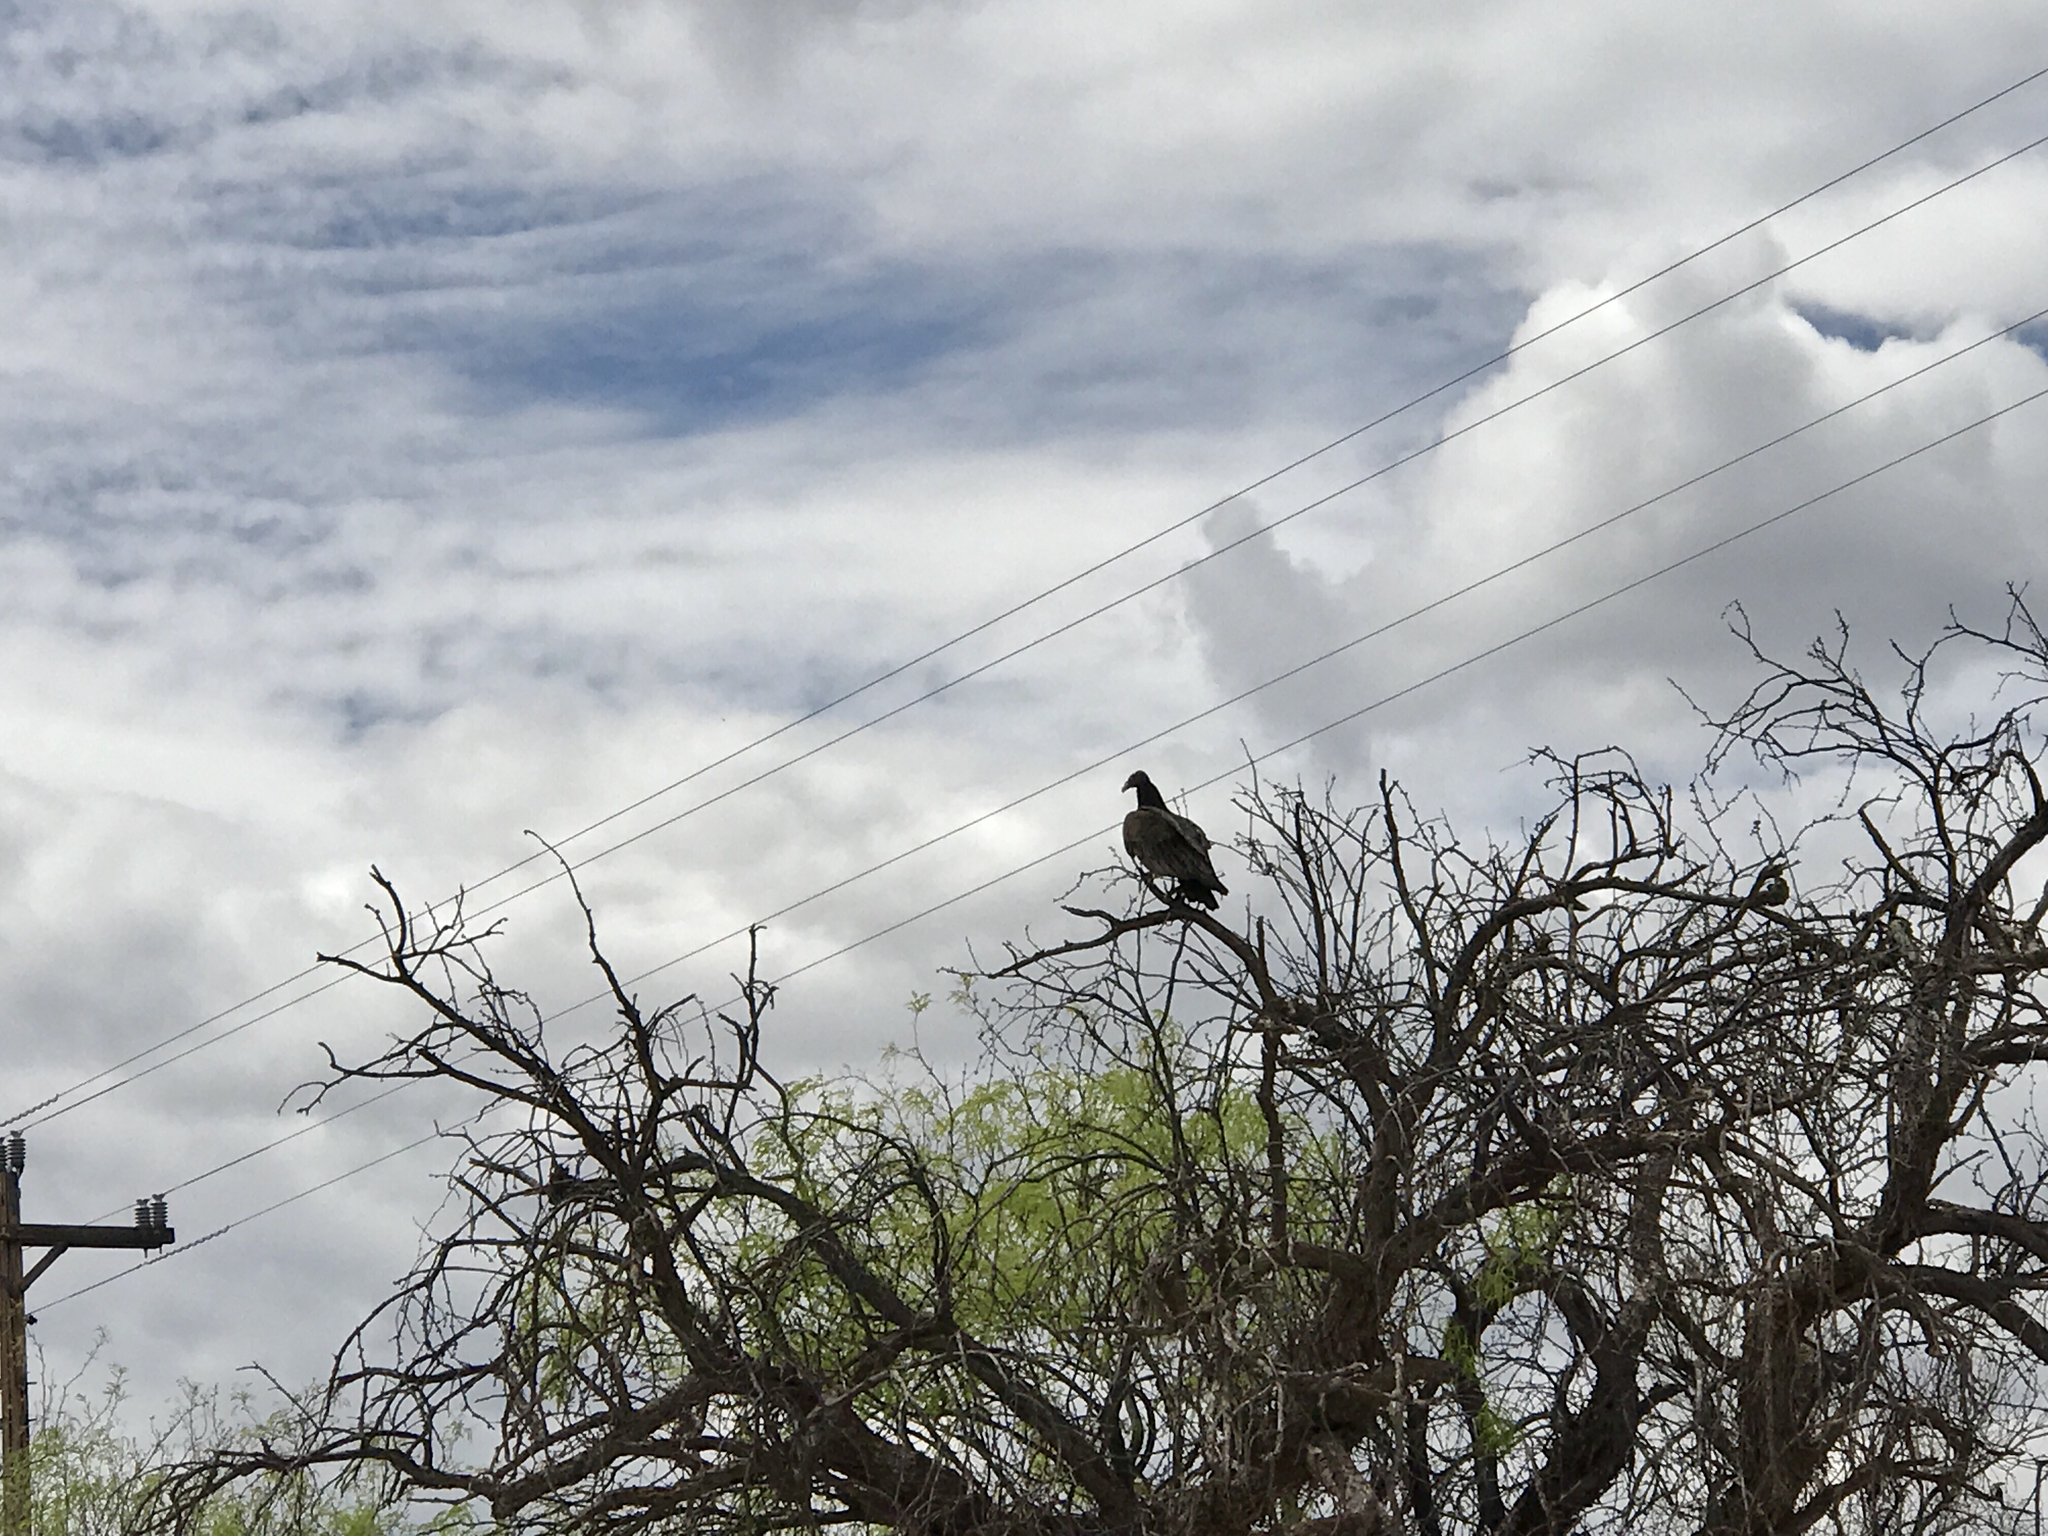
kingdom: Animalia
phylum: Chordata
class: Aves
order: Accipitriformes
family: Cathartidae
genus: Cathartes
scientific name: Cathartes aura
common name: Turkey vulture
